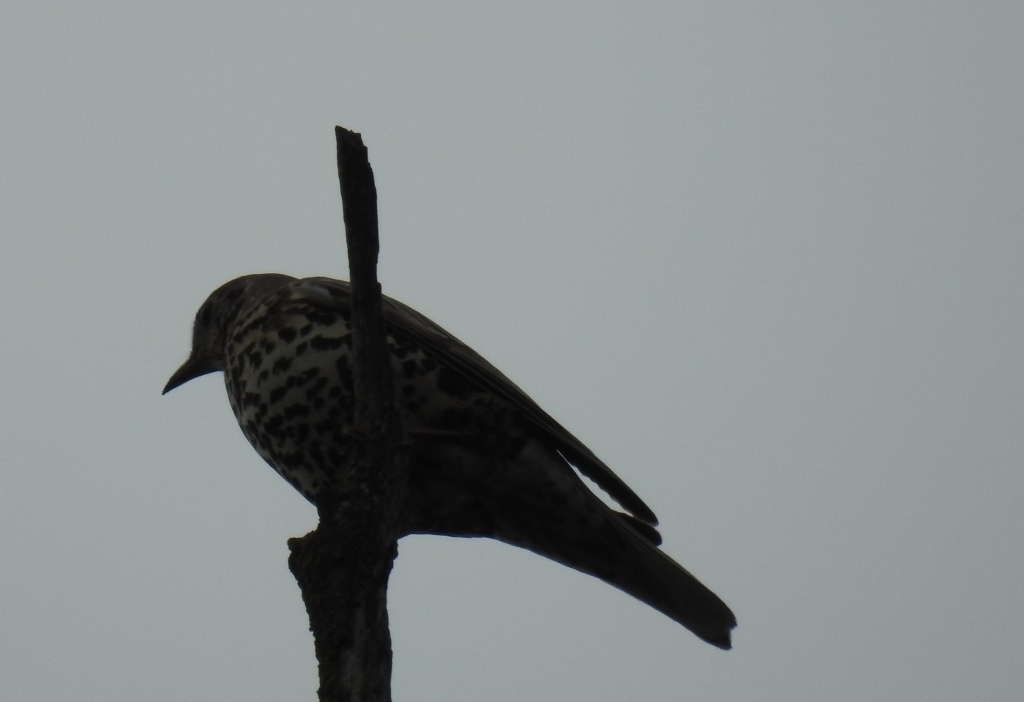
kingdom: Animalia
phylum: Chordata
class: Aves
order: Passeriformes
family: Turdidae
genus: Turdus
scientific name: Turdus viscivorus
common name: Mistle thrush
